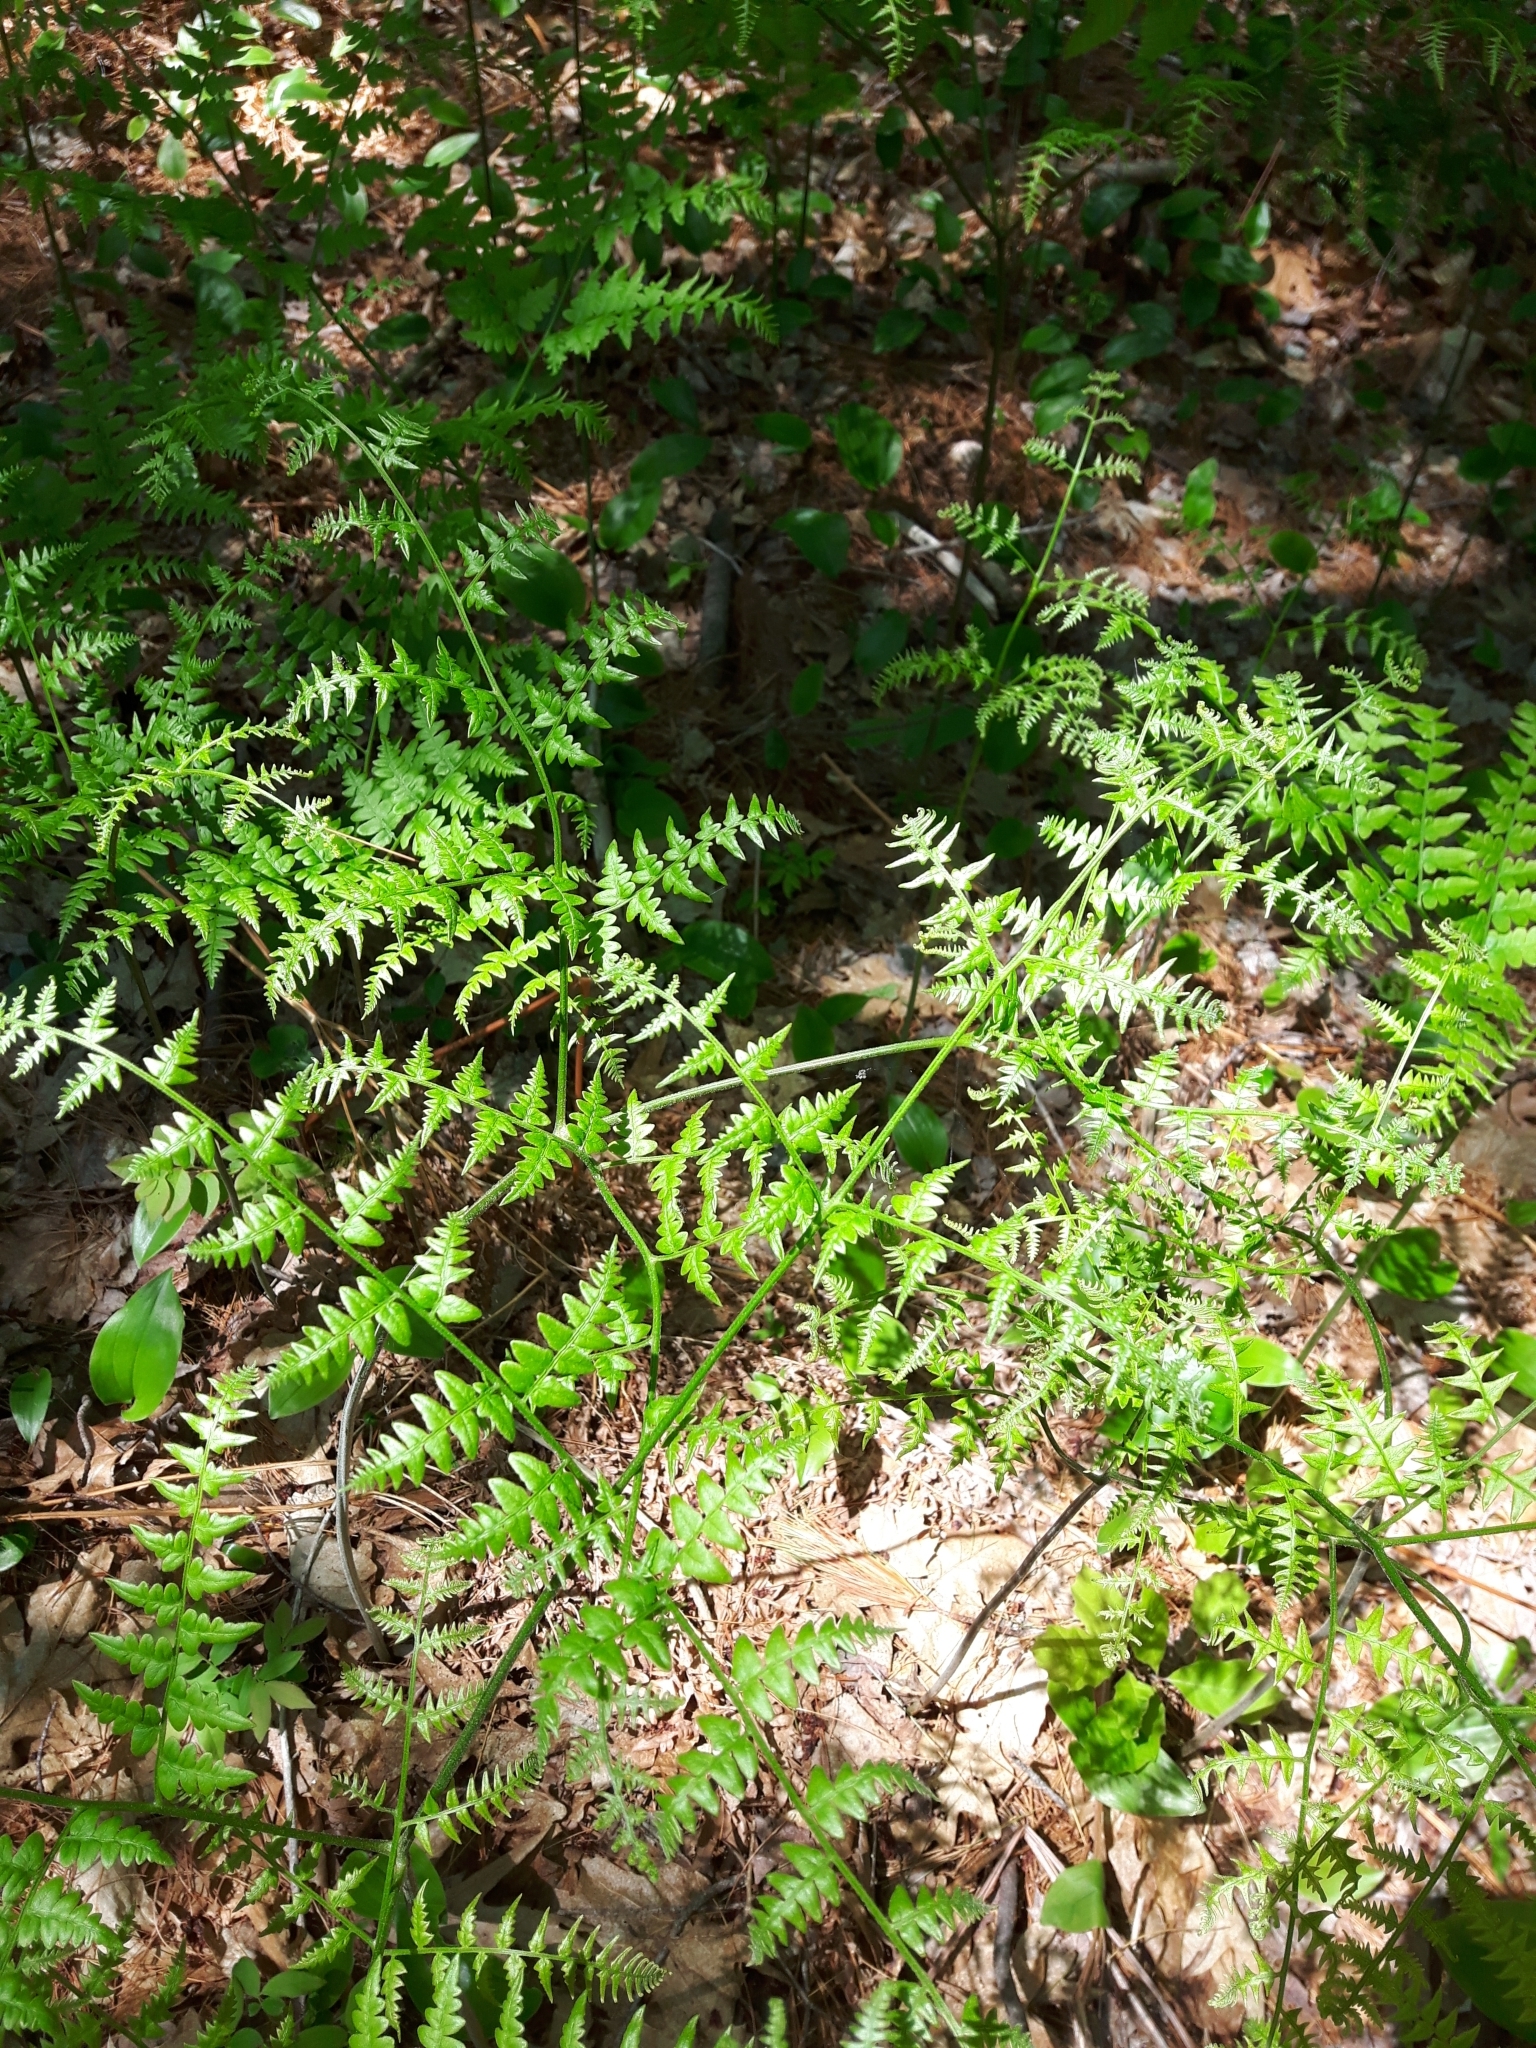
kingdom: Plantae
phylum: Tracheophyta
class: Polypodiopsida
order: Polypodiales
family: Dennstaedtiaceae
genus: Pteridium
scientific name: Pteridium aquilinum
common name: Bracken
